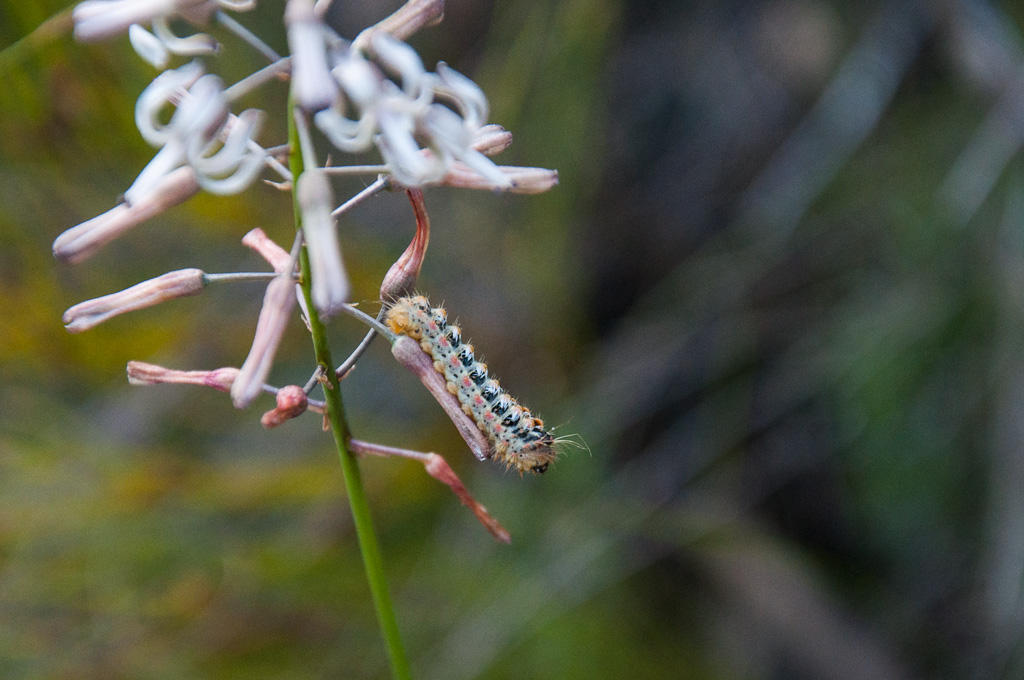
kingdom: Animalia
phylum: Arthropoda
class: Insecta
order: Lepidoptera
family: Somabrachyidae
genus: Psycharium
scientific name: Psycharium pellucens
